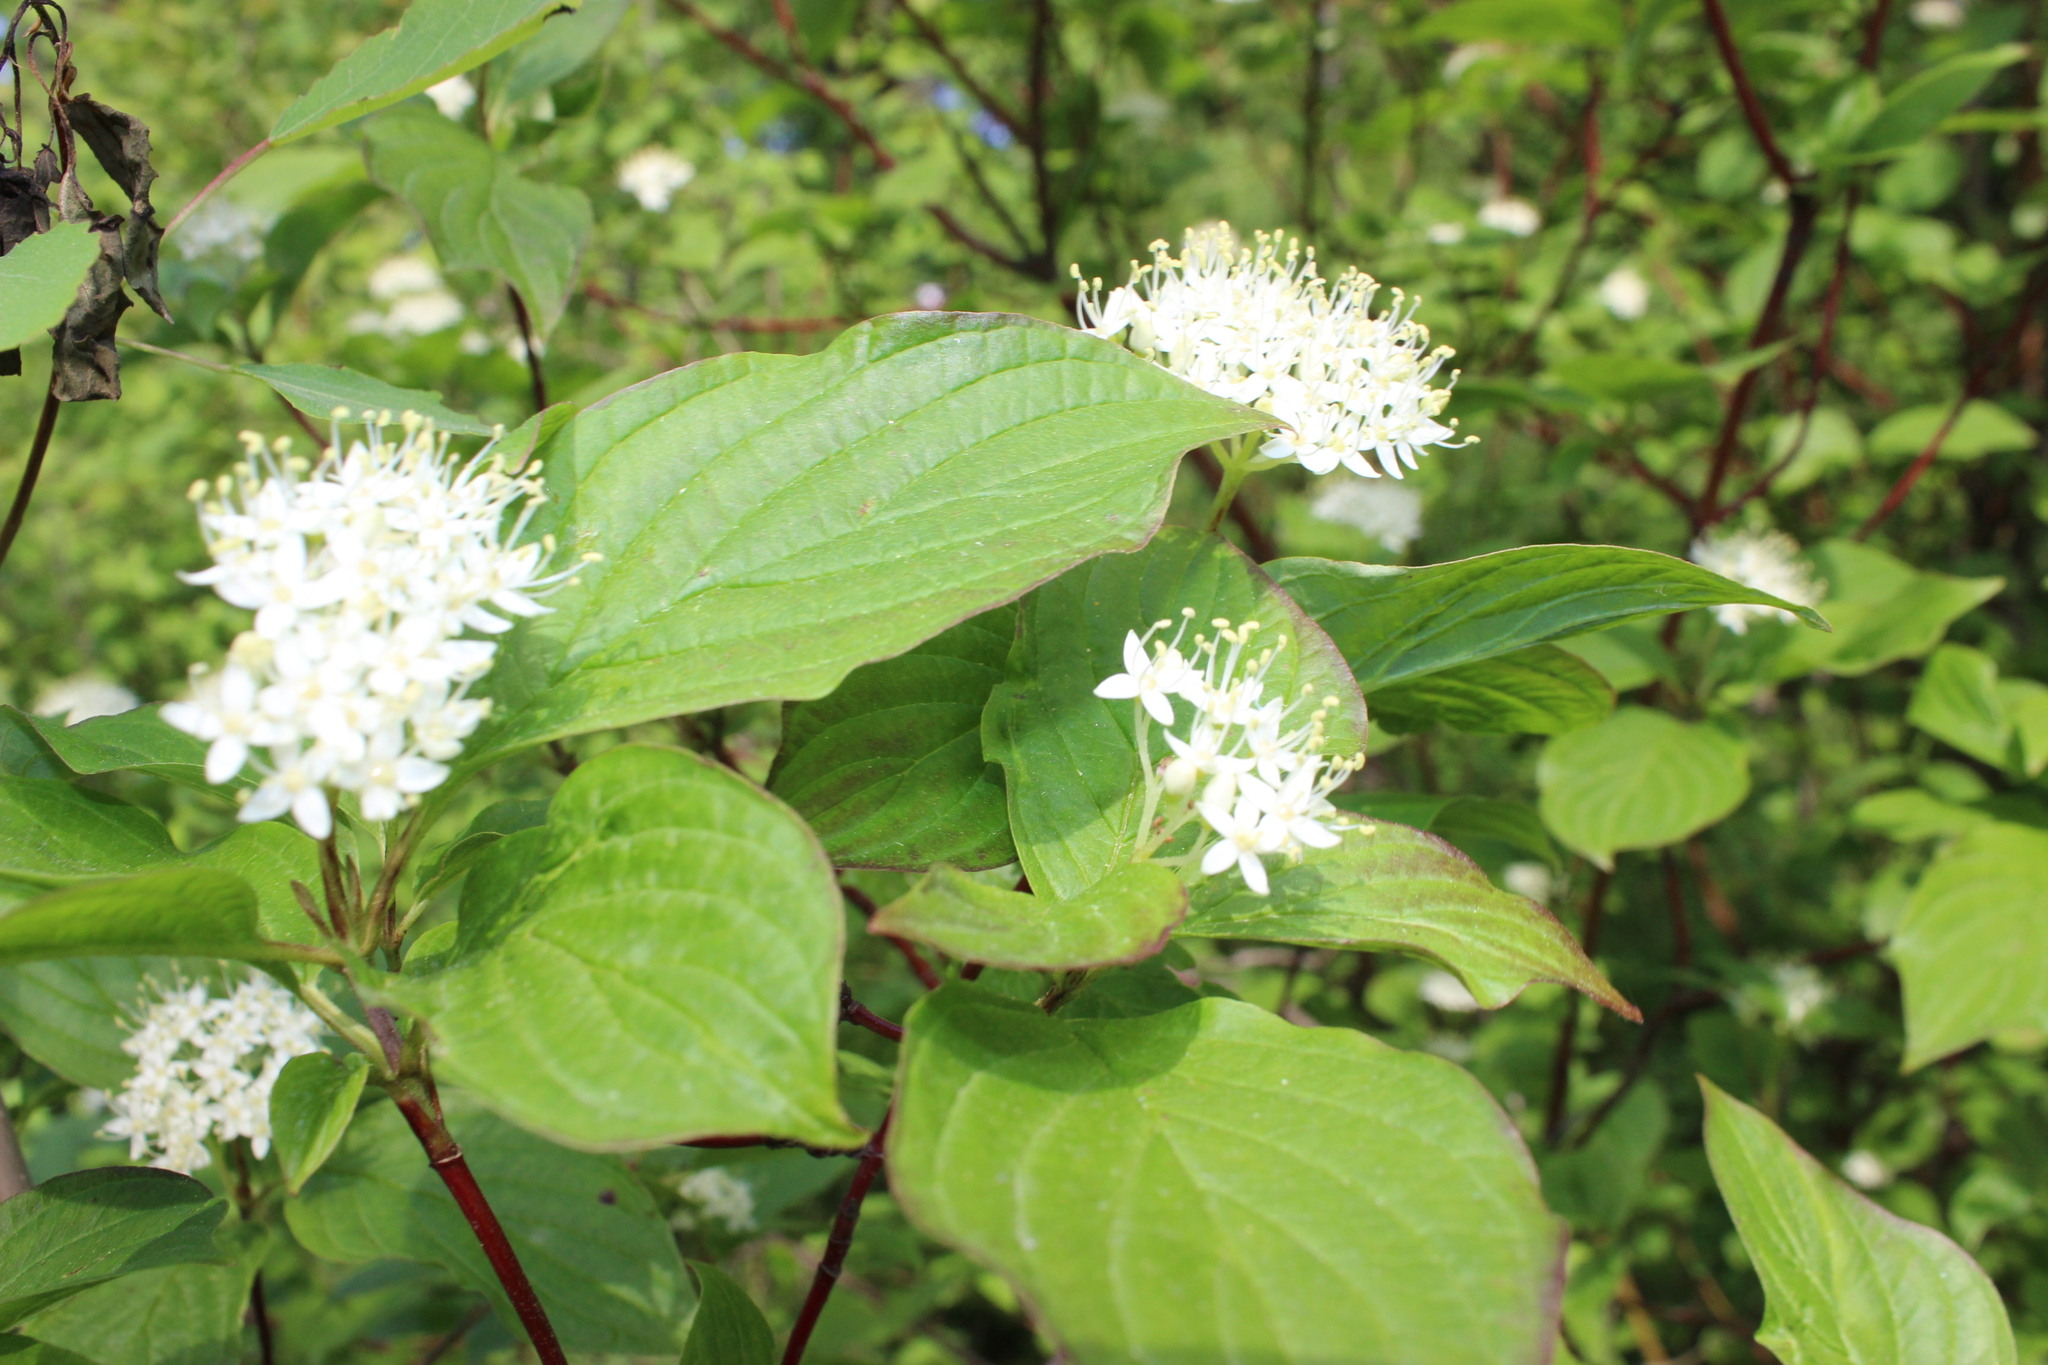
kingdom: Plantae
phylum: Tracheophyta
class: Magnoliopsida
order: Cornales
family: Cornaceae
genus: Cornus
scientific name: Cornus alba
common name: White dogwood
